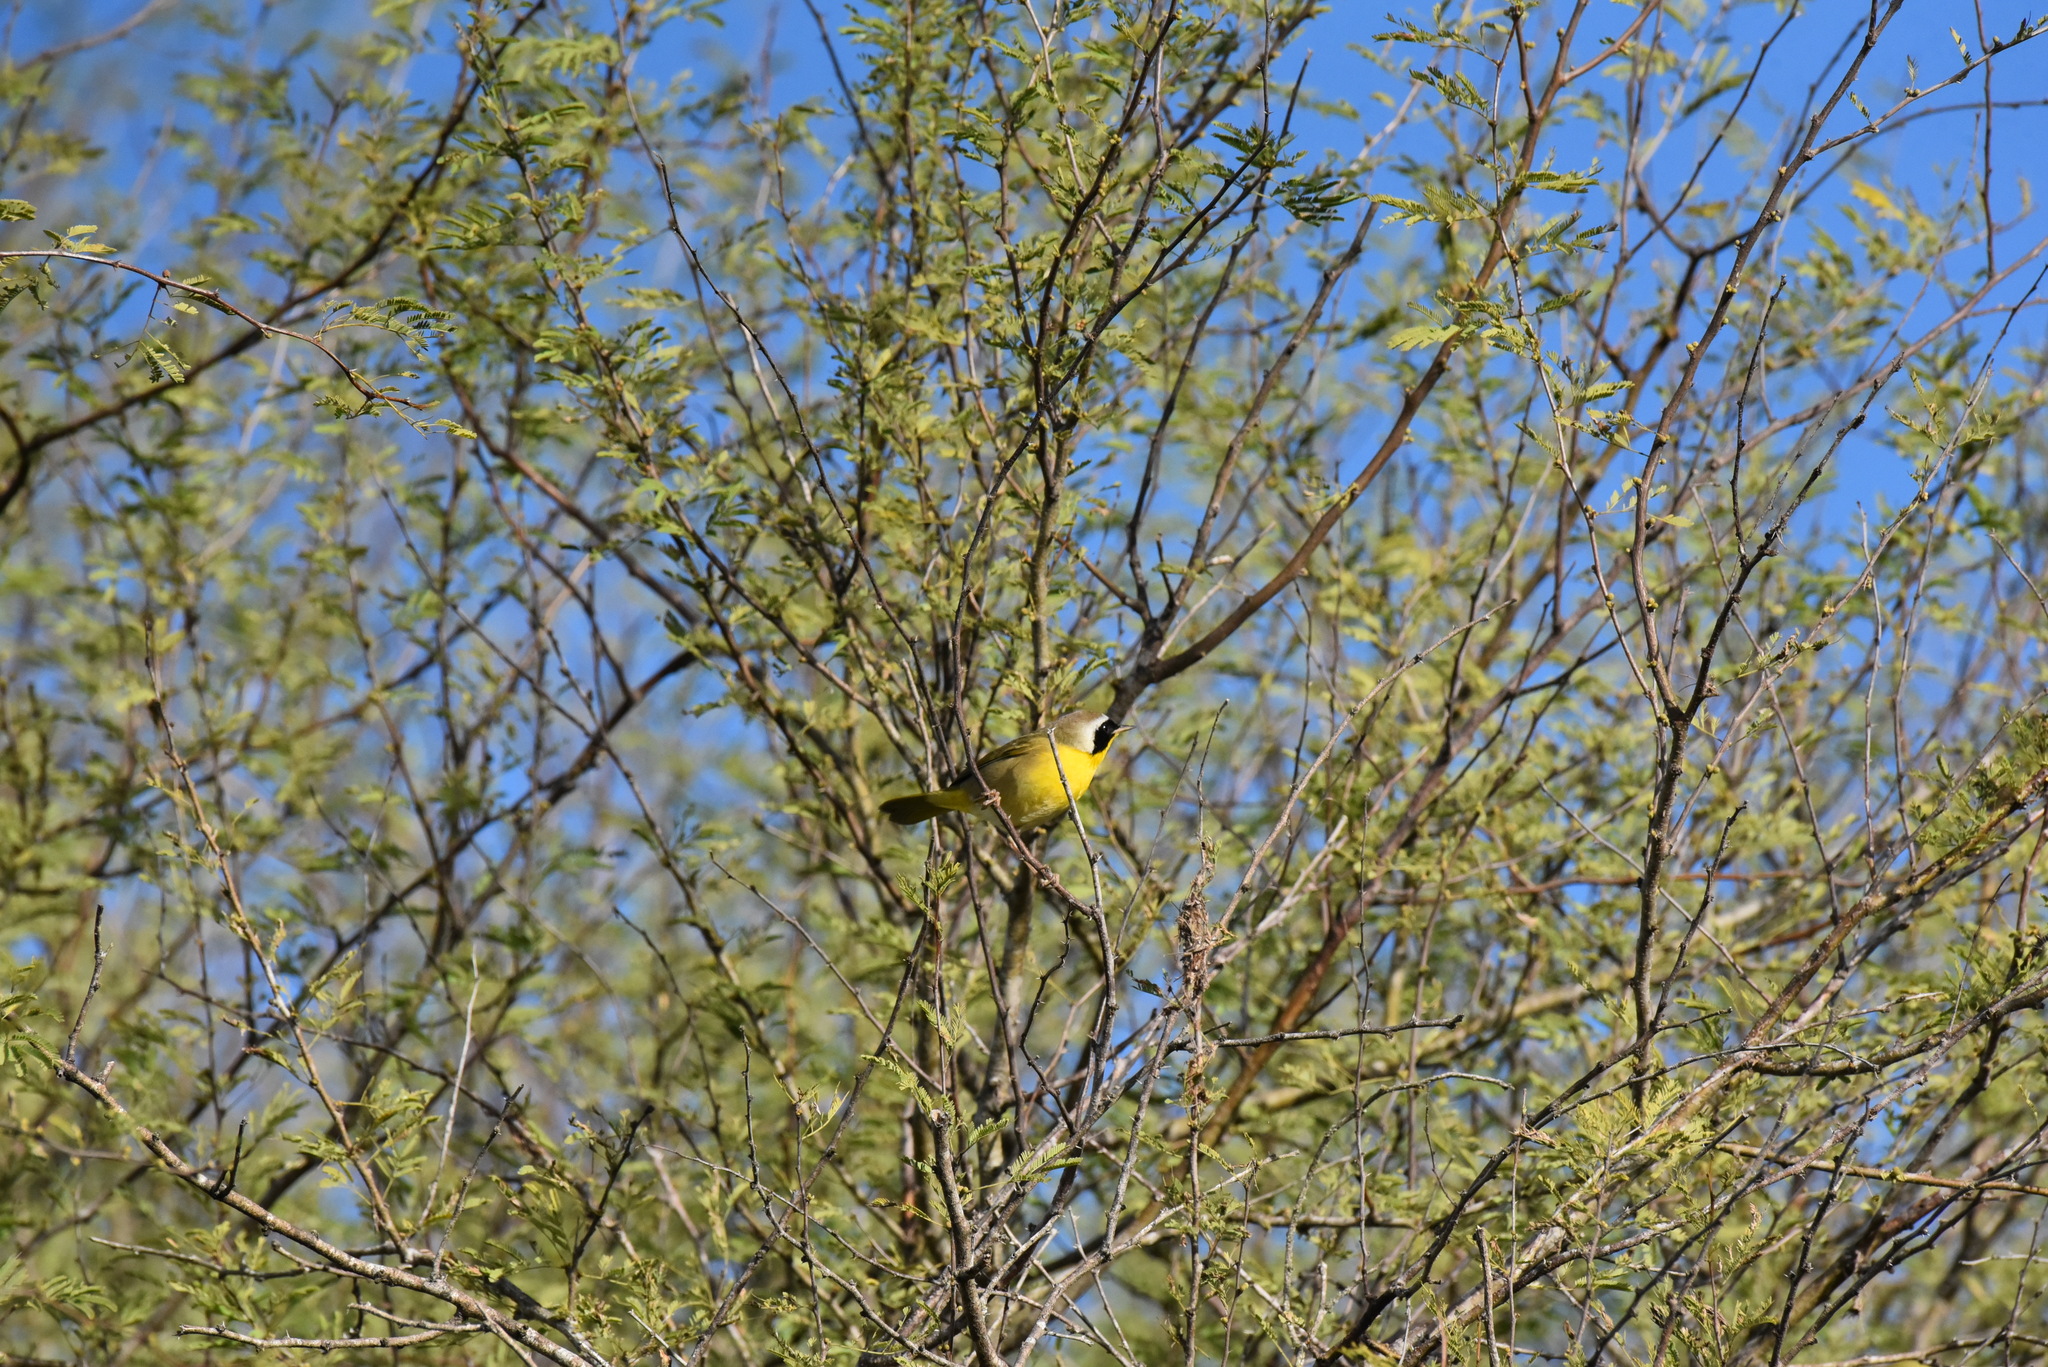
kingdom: Animalia
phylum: Chordata
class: Aves
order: Passeriformes
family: Parulidae
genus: Geothlypis
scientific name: Geothlypis trichas
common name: Common yellowthroat
